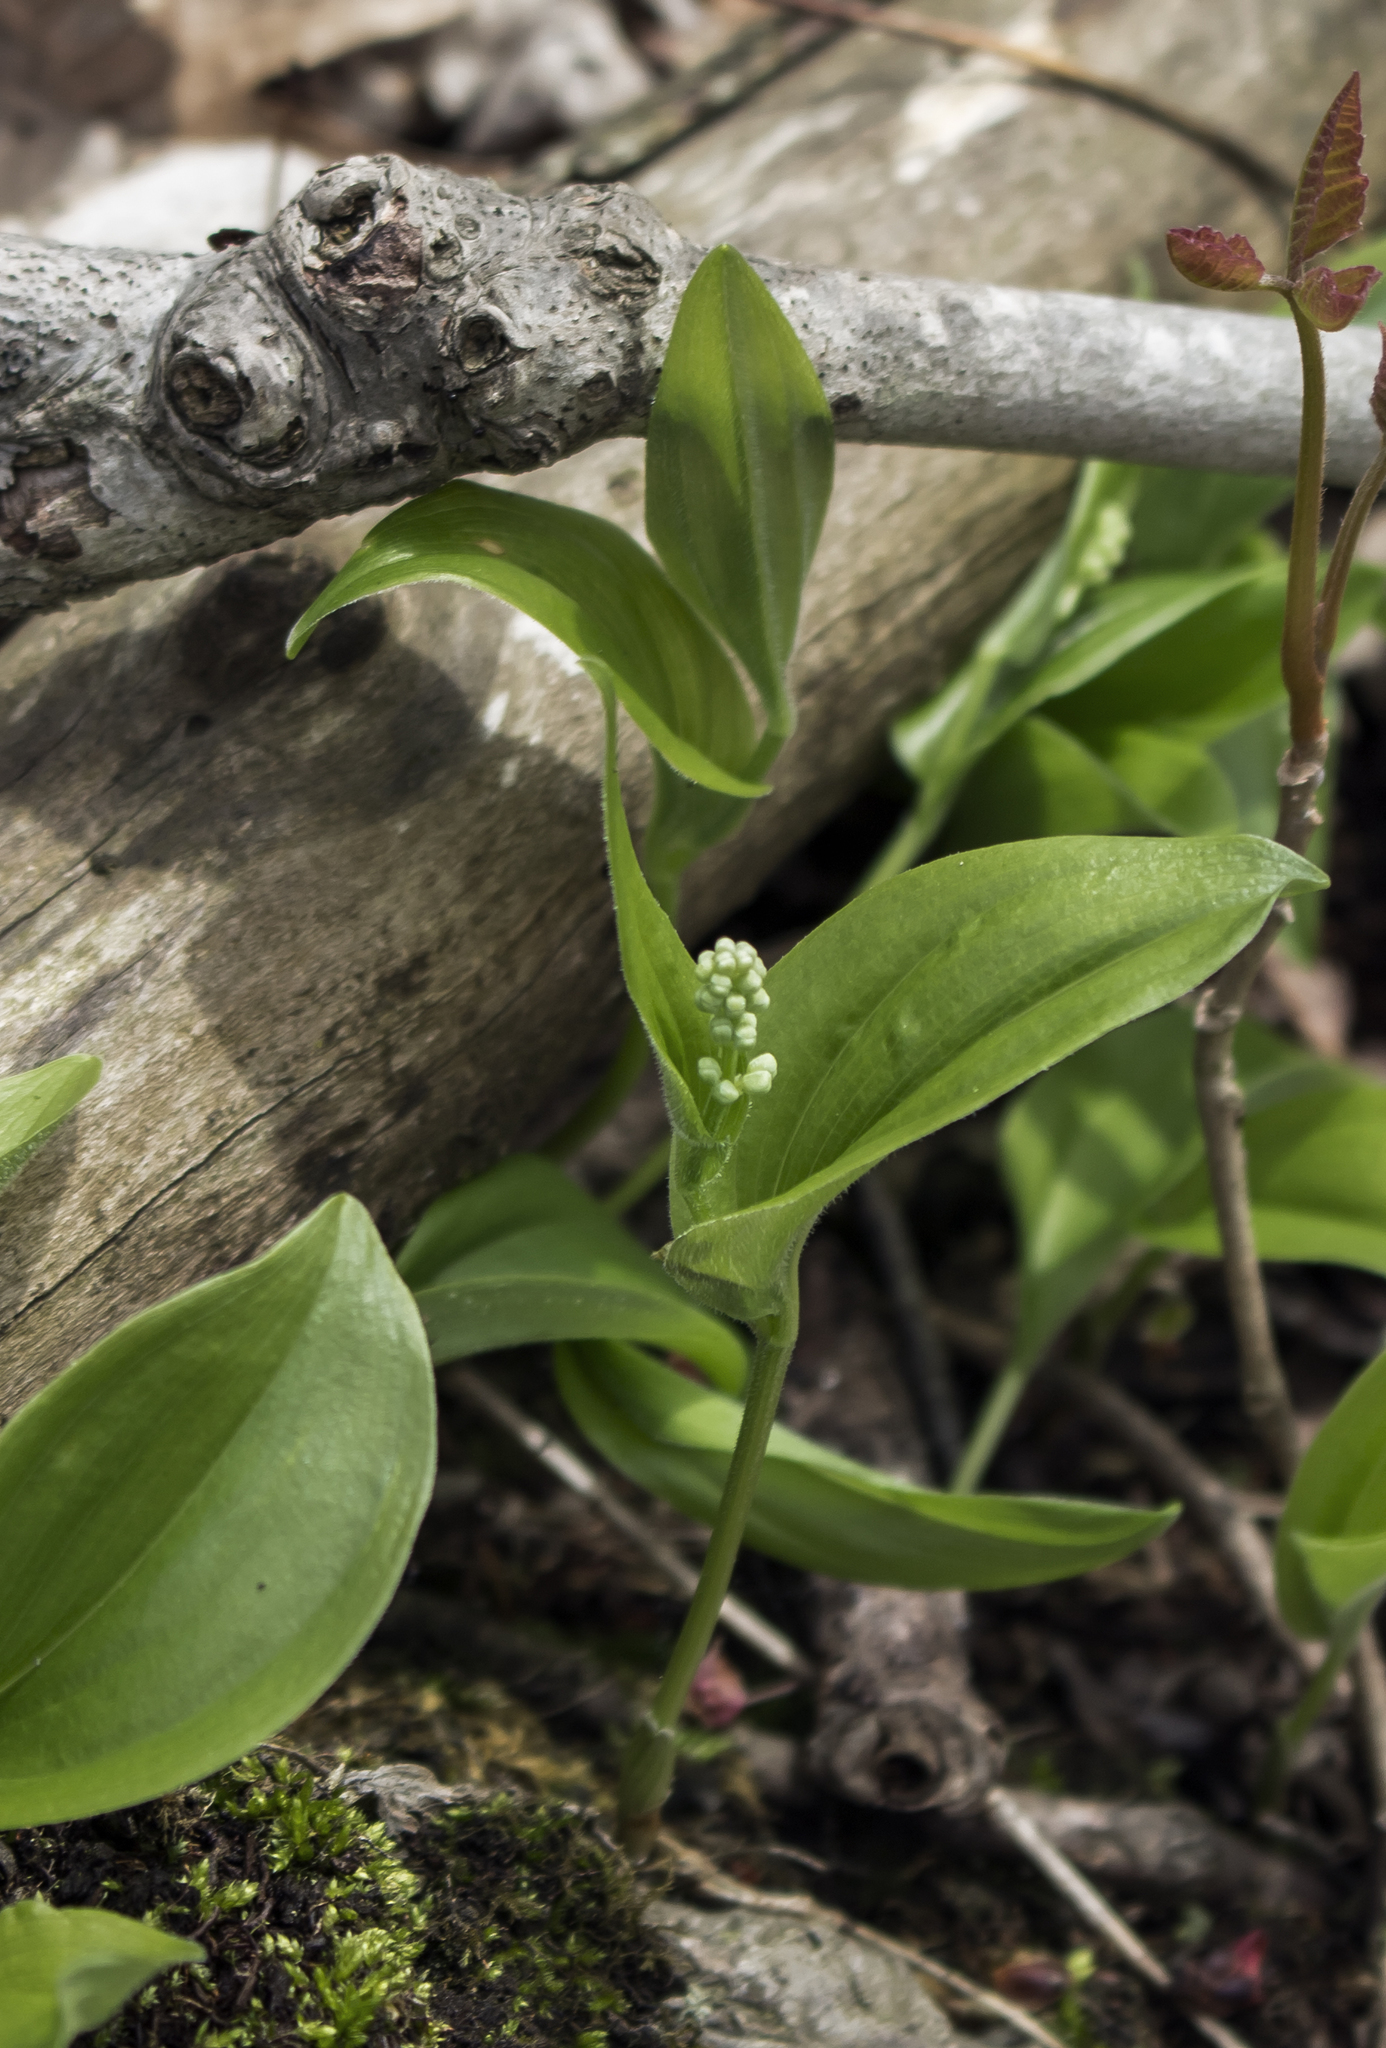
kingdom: Plantae
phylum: Tracheophyta
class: Liliopsida
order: Asparagales
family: Asparagaceae
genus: Maianthemum
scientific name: Maianthemum canadense
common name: False lily-of-the-valley
